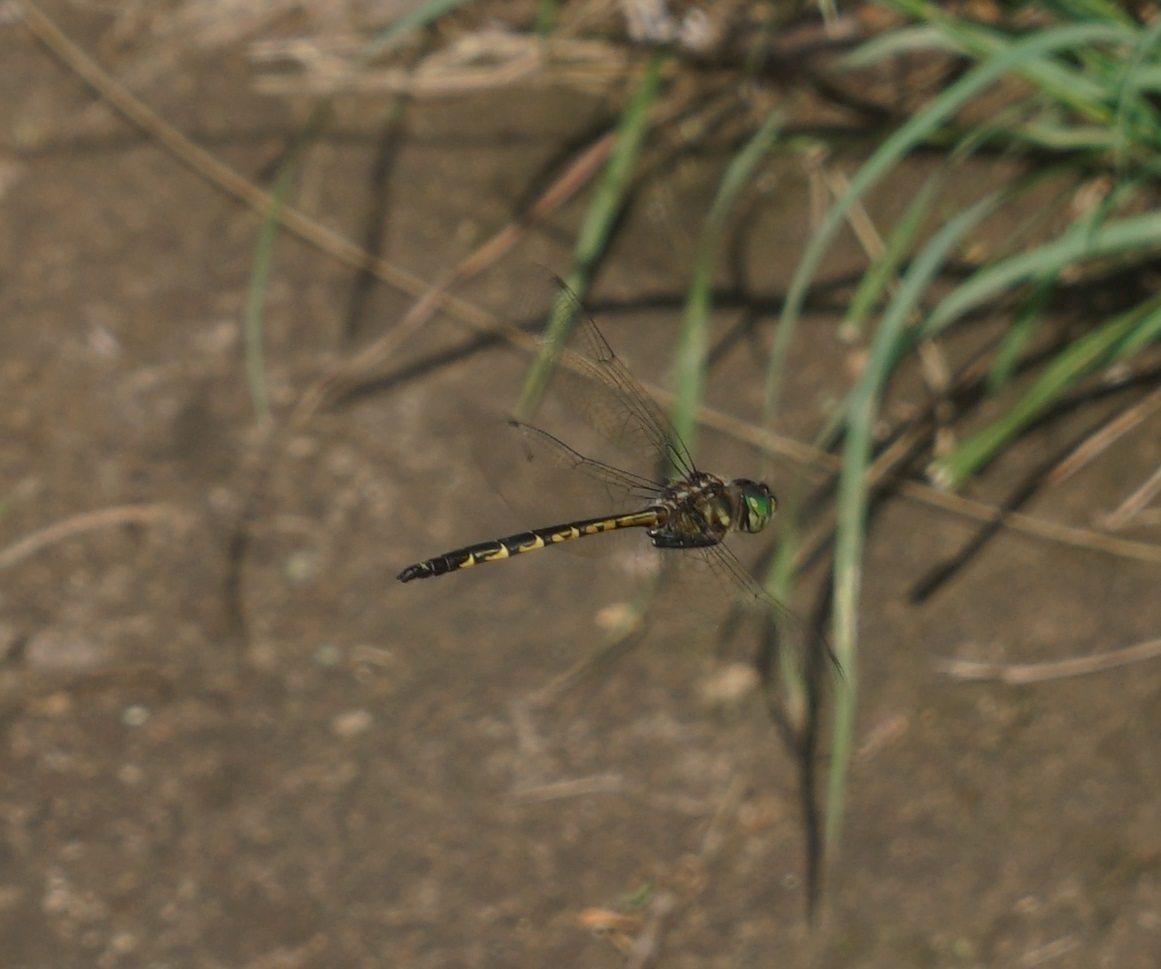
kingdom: Animalia
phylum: Arthropoda
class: Insecta
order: Odonata
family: Corduliidae
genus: Hemicordulia
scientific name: Hemicordulia australiae
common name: Sentry dragonfly
